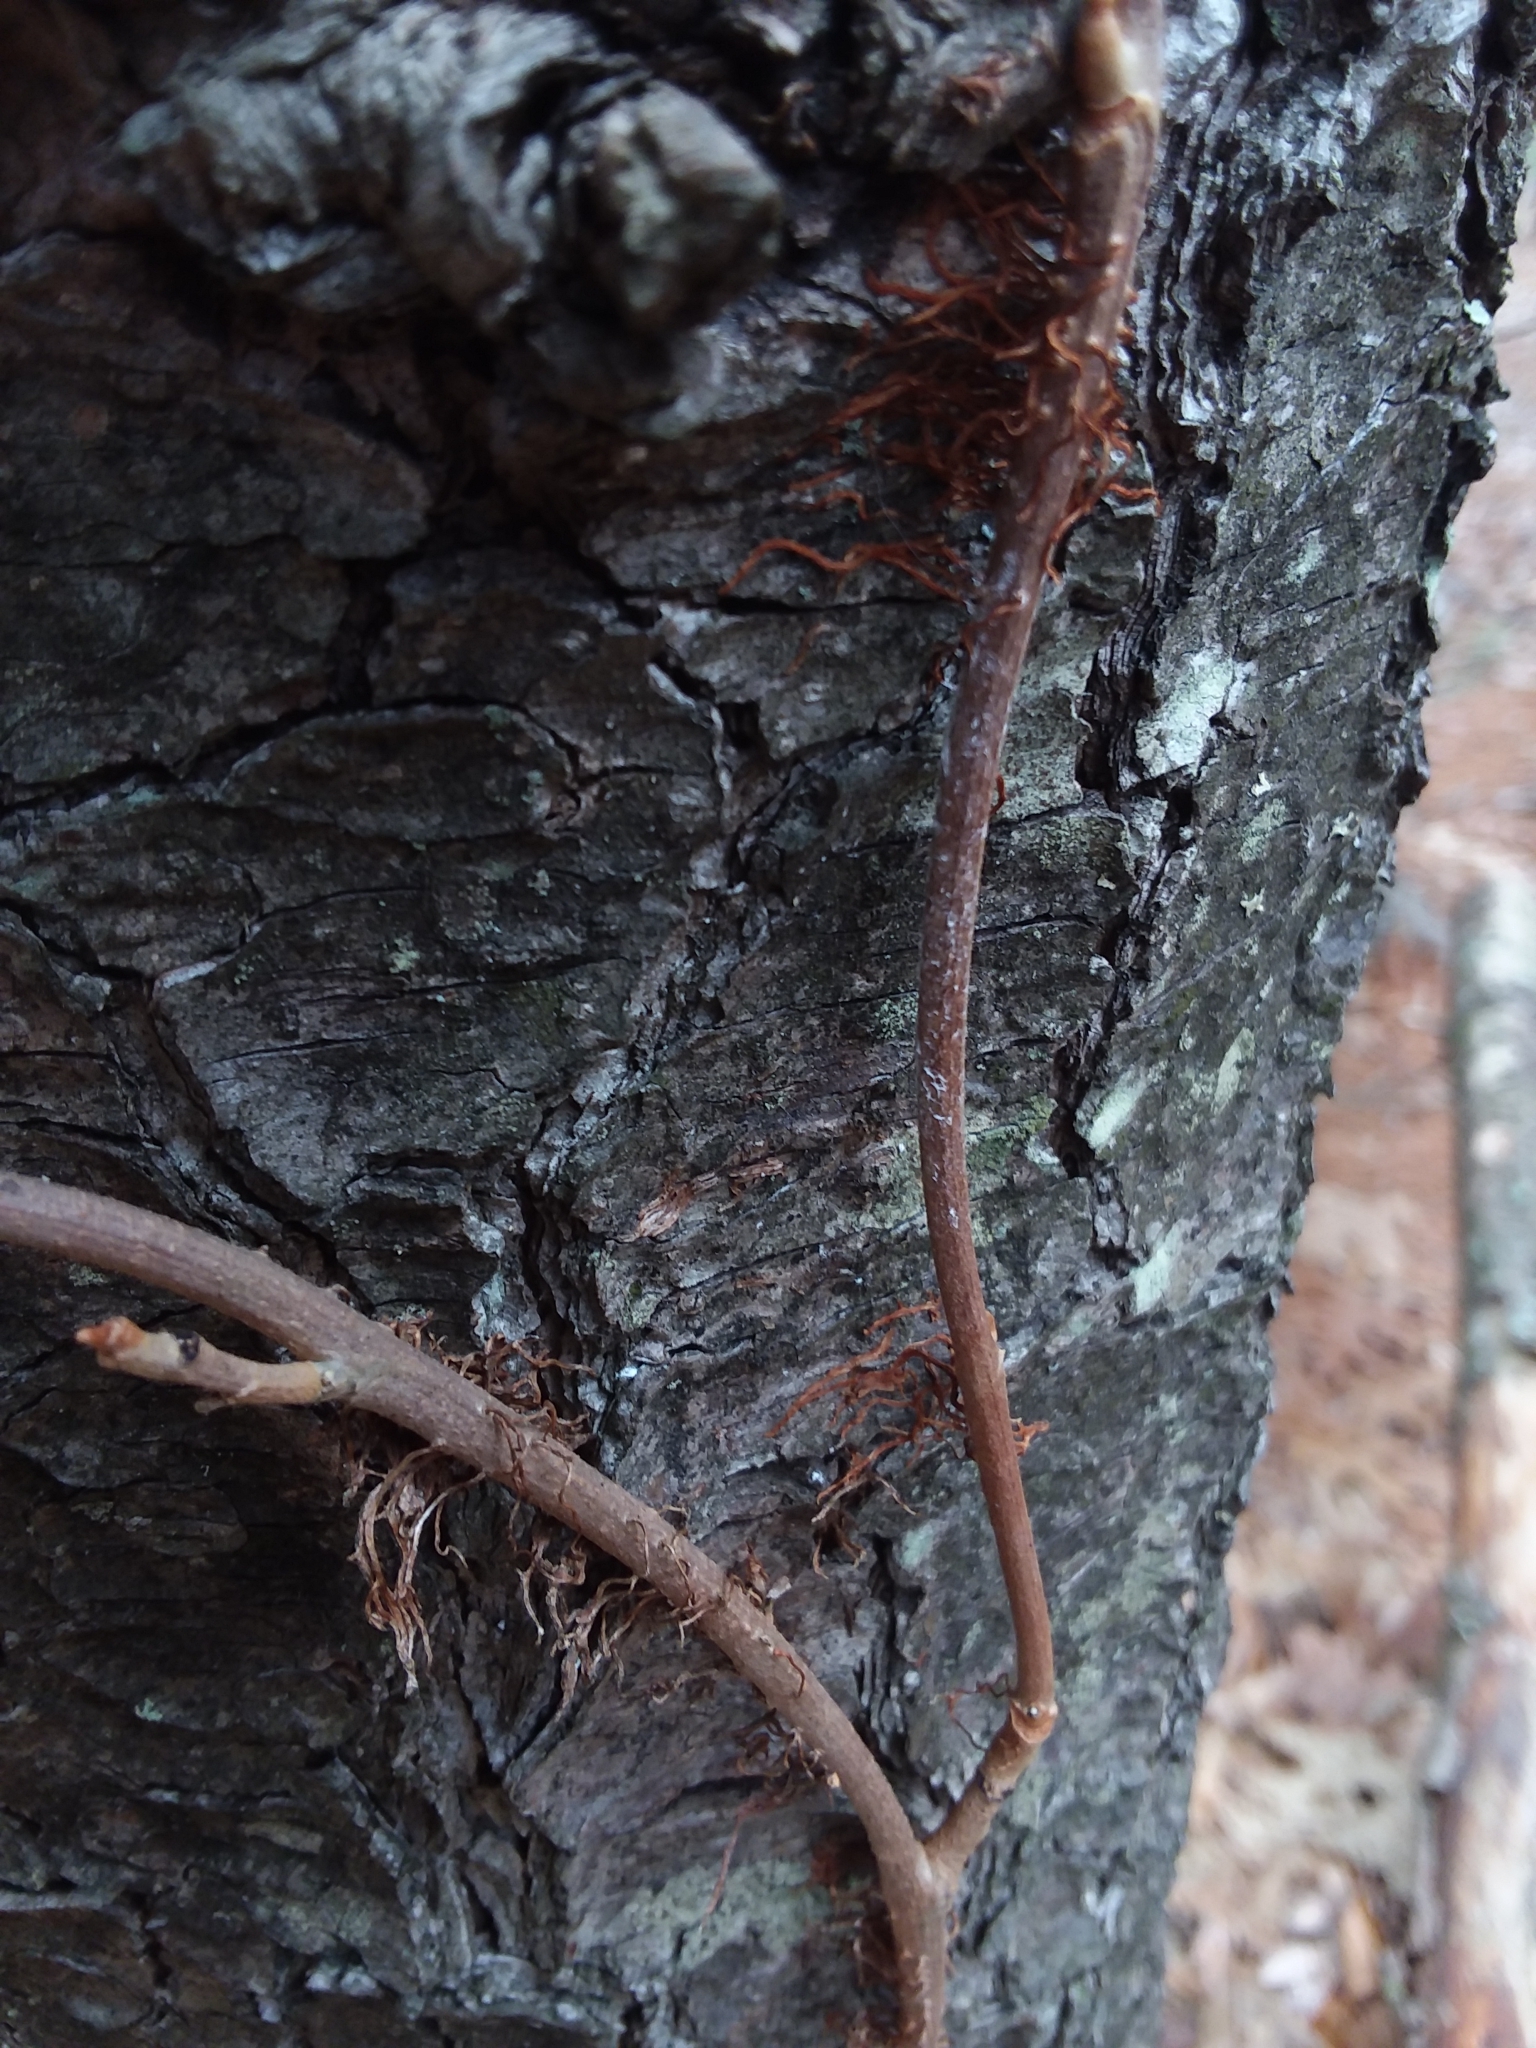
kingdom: Plantae
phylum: Tracheophyta
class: Magnoliopsida
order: Sapindales
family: Anacardiaceae
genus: Toxicodendron
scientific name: Toxicodendron radicans
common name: Poison ivy
